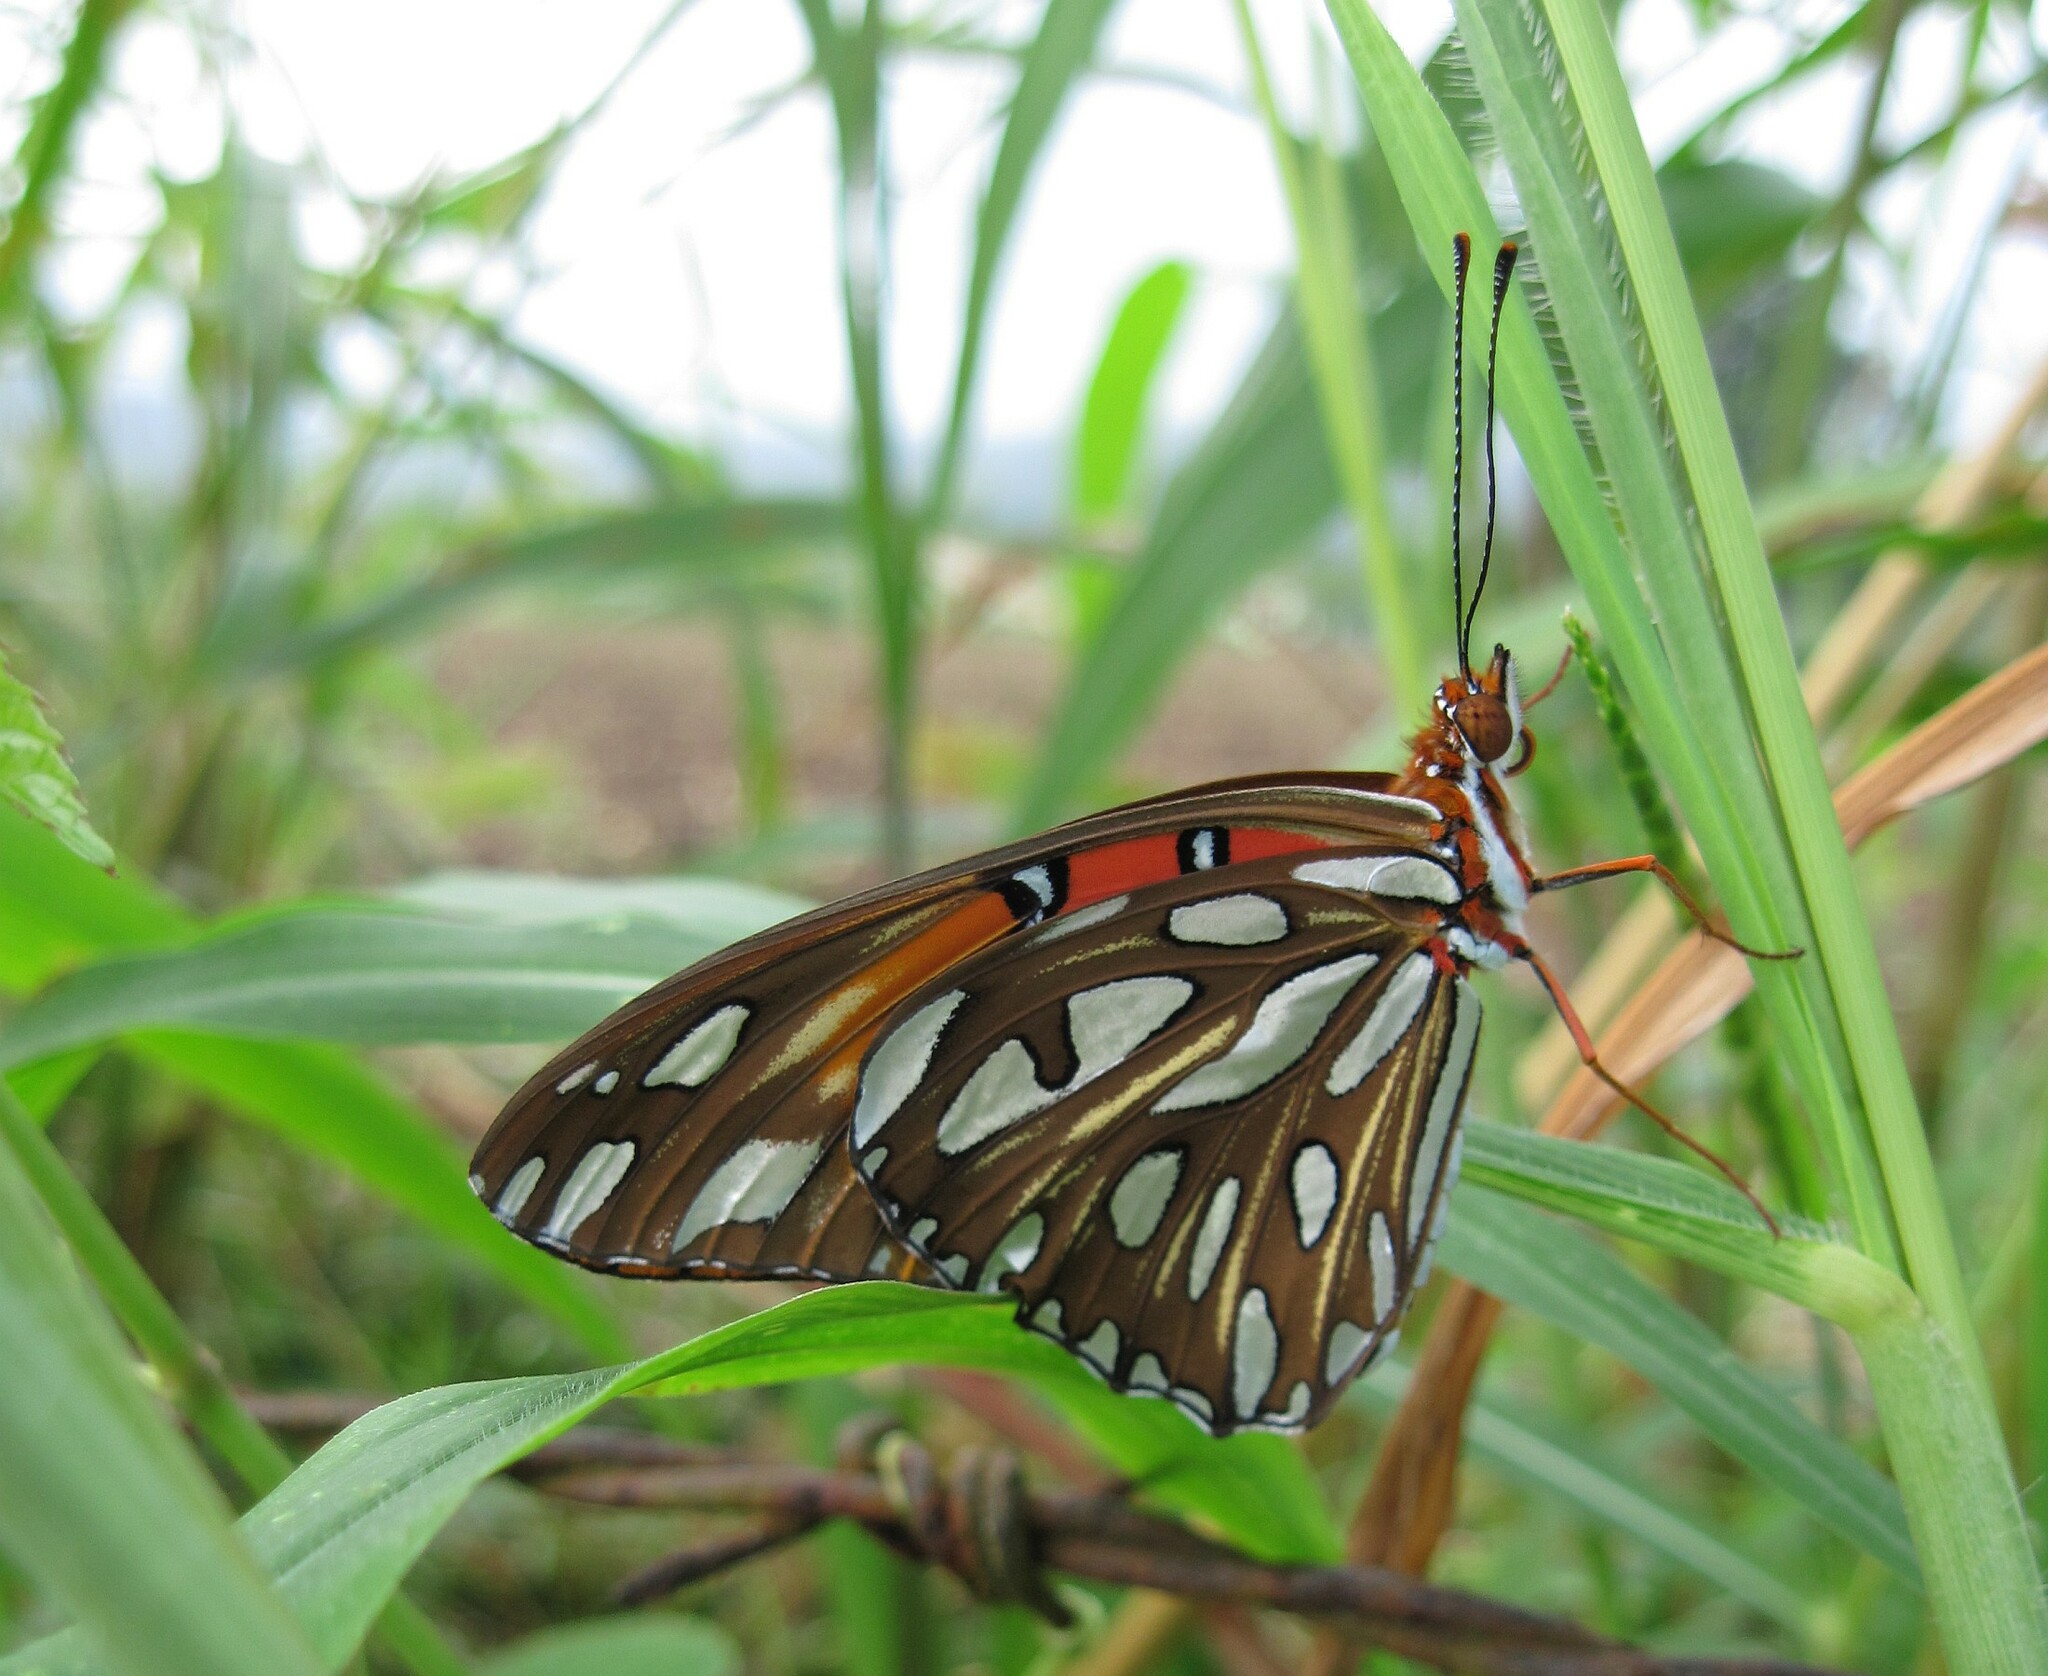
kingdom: Animalia
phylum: Arthropoda
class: Insecta
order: Lepidoptera
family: Nymphalidae
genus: Dione
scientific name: Dione vanillae
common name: Gulf fritillary
